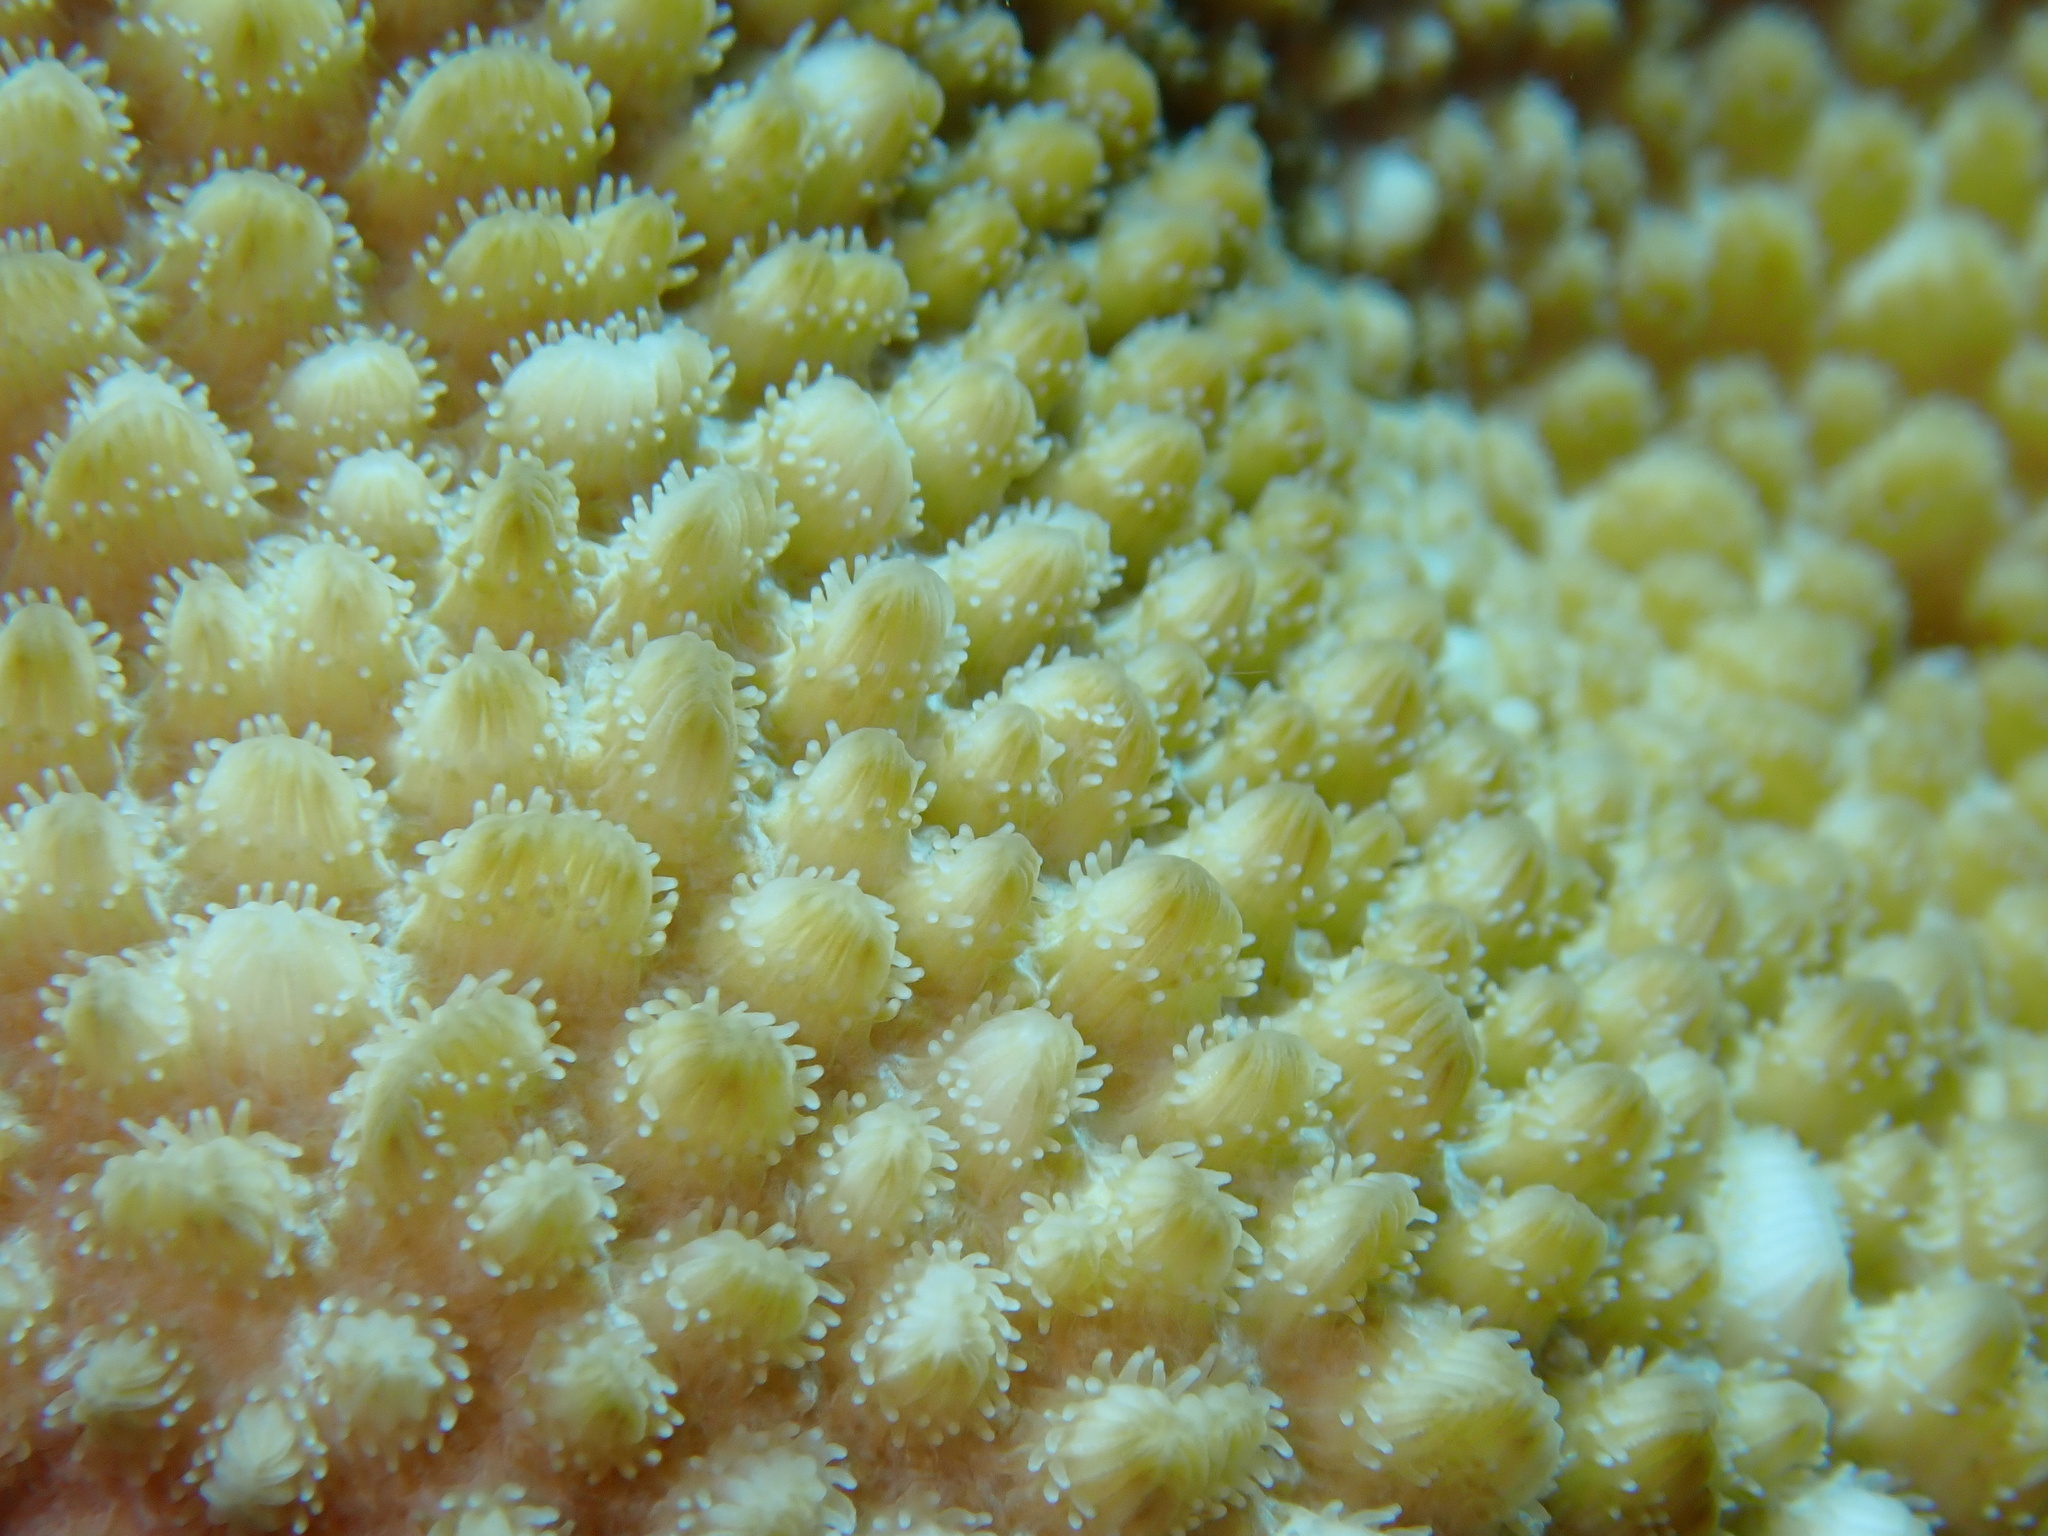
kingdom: Animalia
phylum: Cnidaria
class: Anthozoa
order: Scleractinia
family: Merulinidae
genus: Hydnophora
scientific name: Hydnophora microconos
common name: Spine coral
